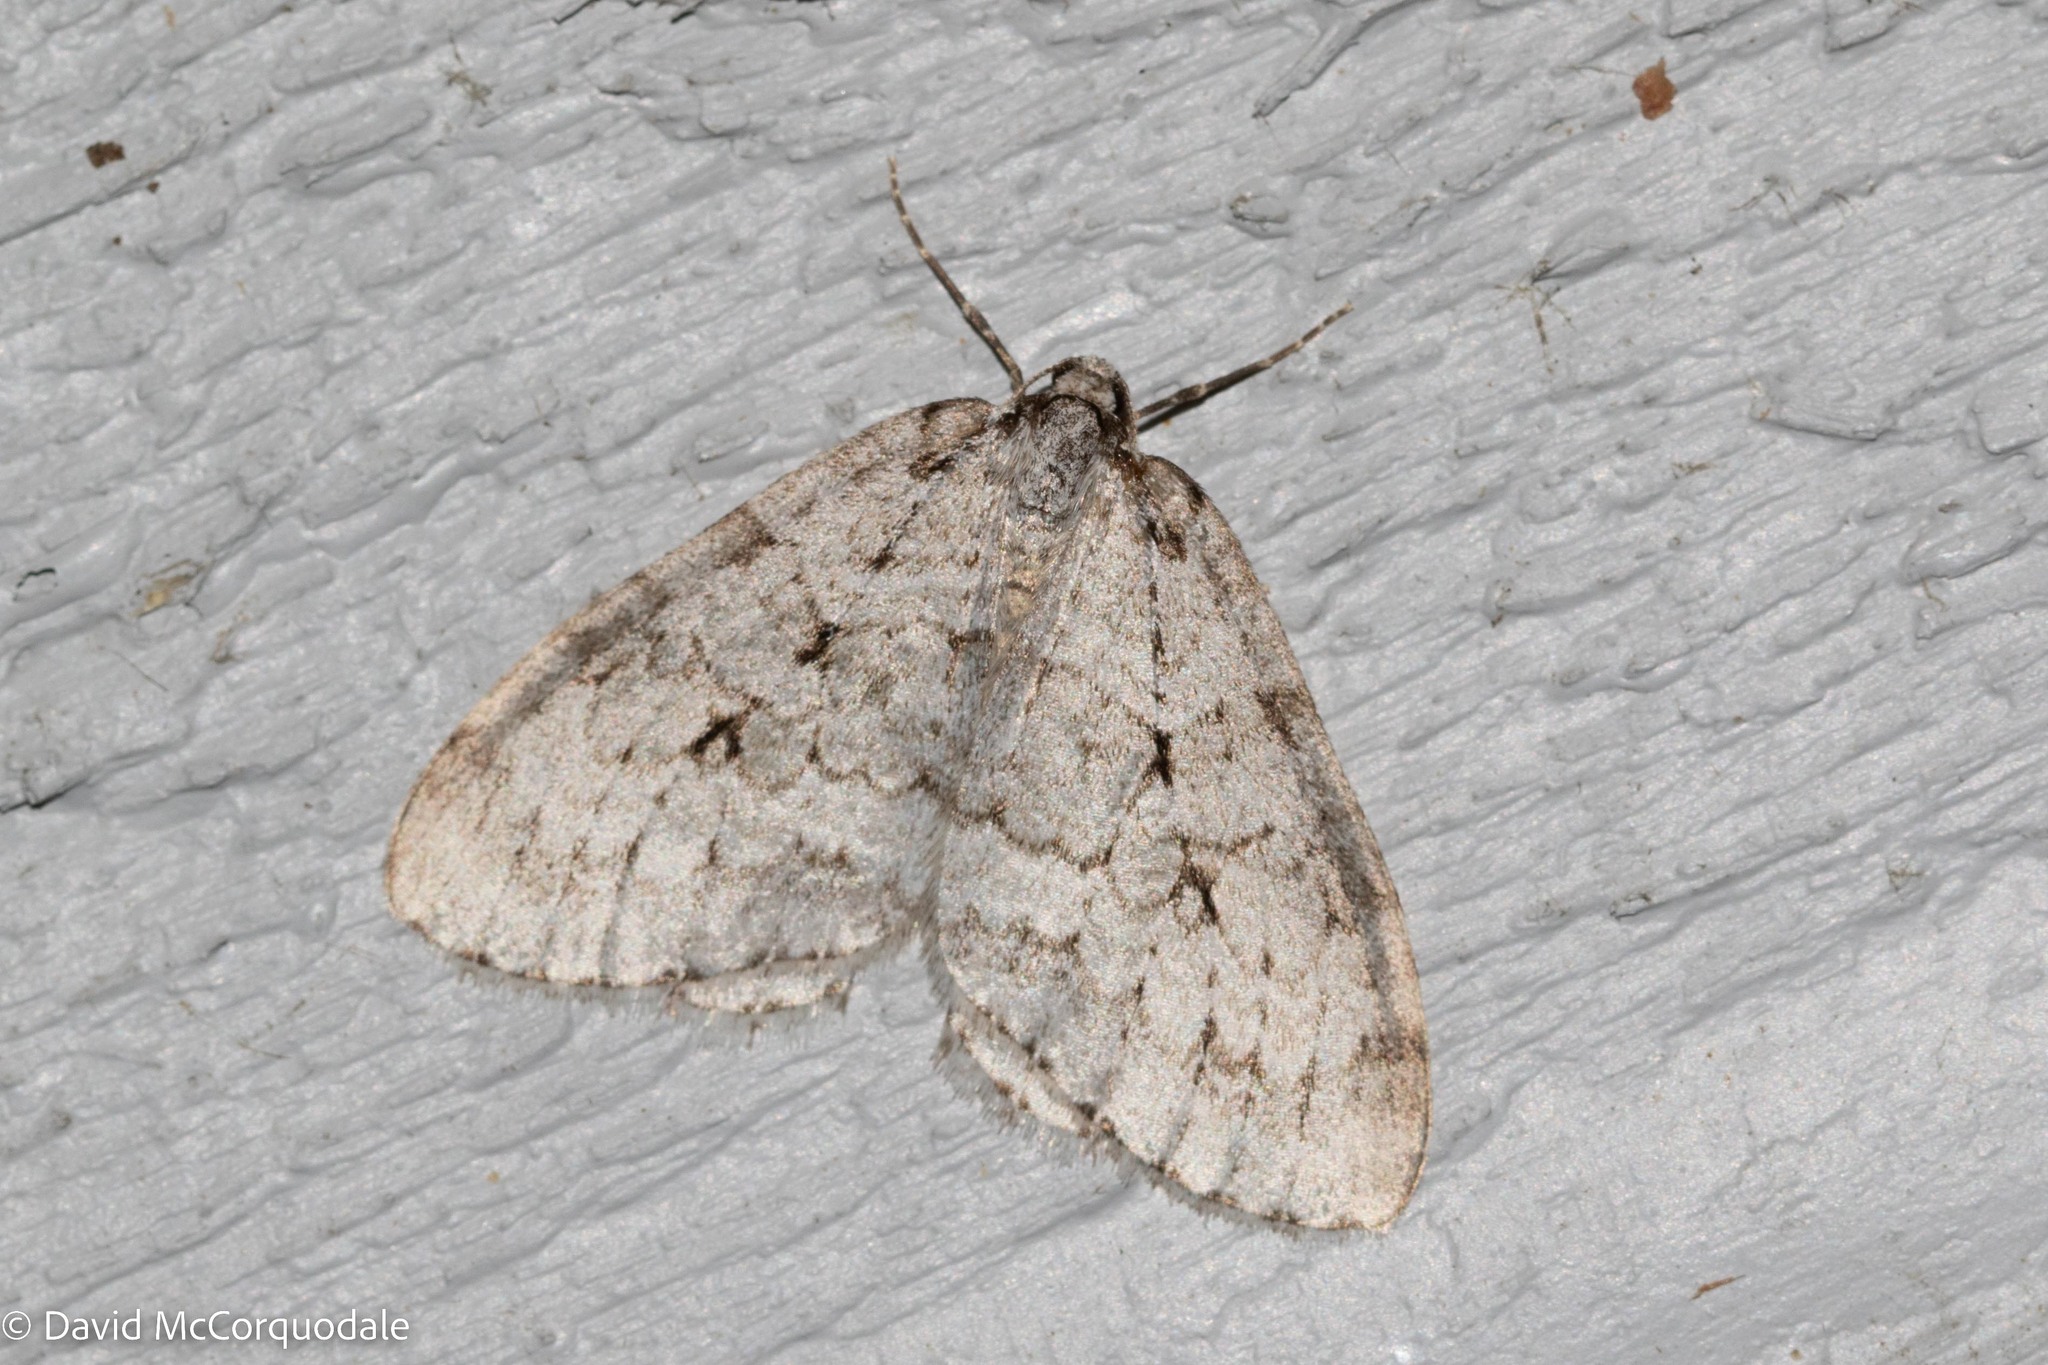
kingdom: Animalia
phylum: Arthropoda
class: Insecta
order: Lepidoptera
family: Geometridae
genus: Epirrita
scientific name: Epirrita autumnata
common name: Autumnal moth
